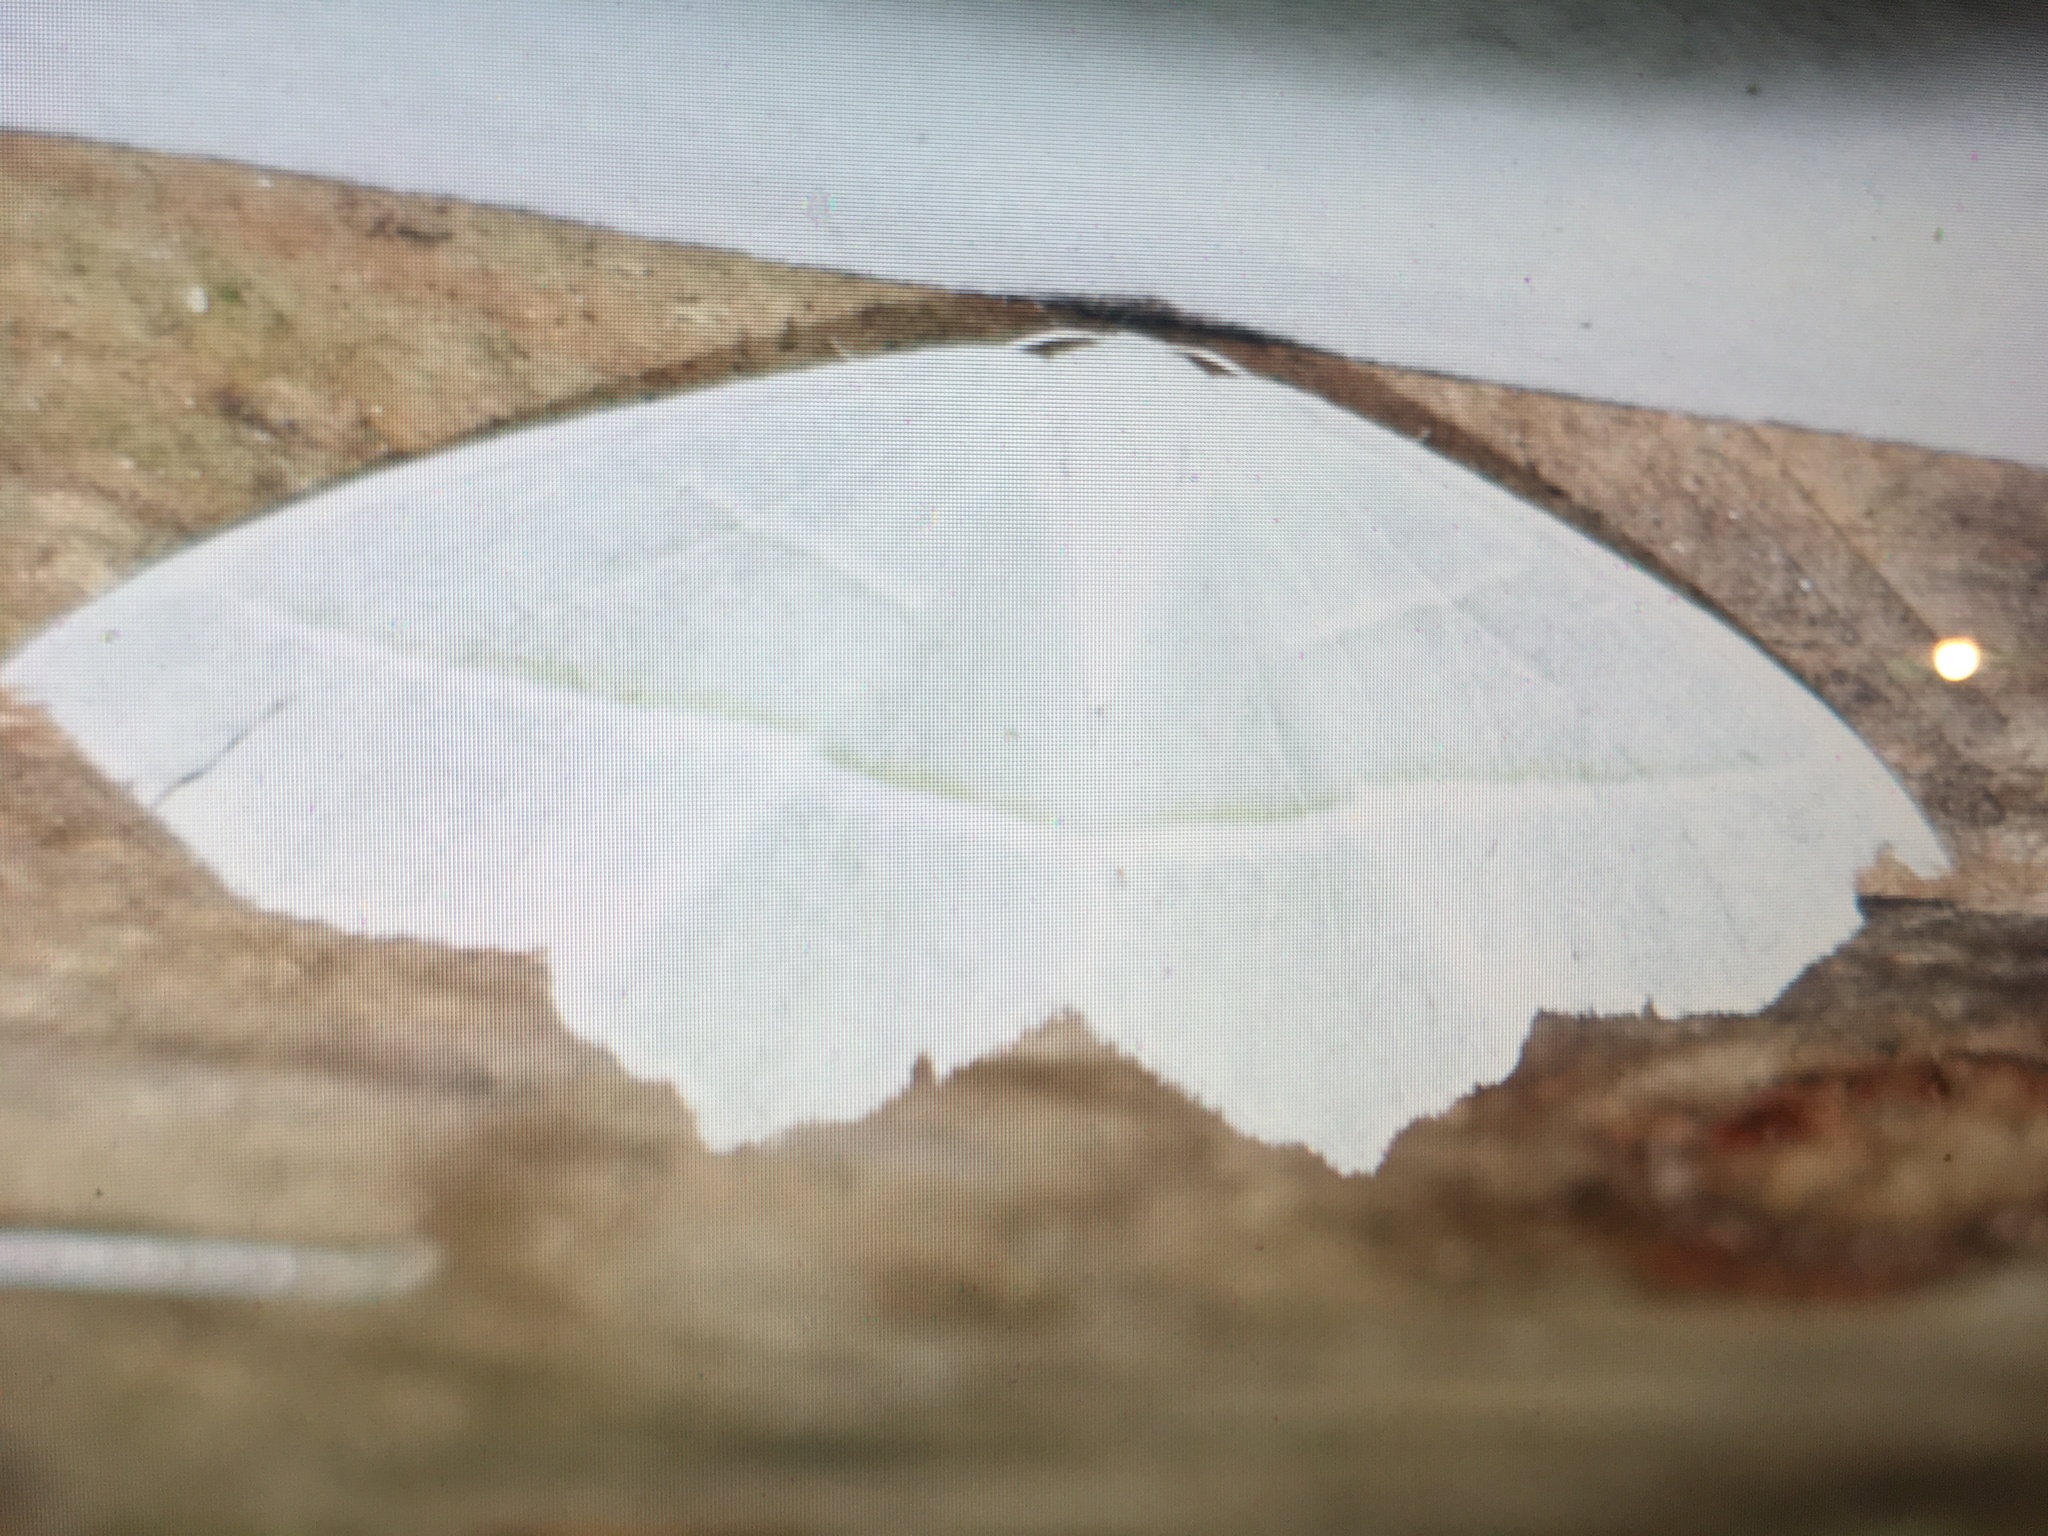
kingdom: Animalia
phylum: Arthropoda
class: Insecta
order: Lepidoptera
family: Geometridae
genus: Campaea
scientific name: Campaea margaritaria
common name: Light emerald
